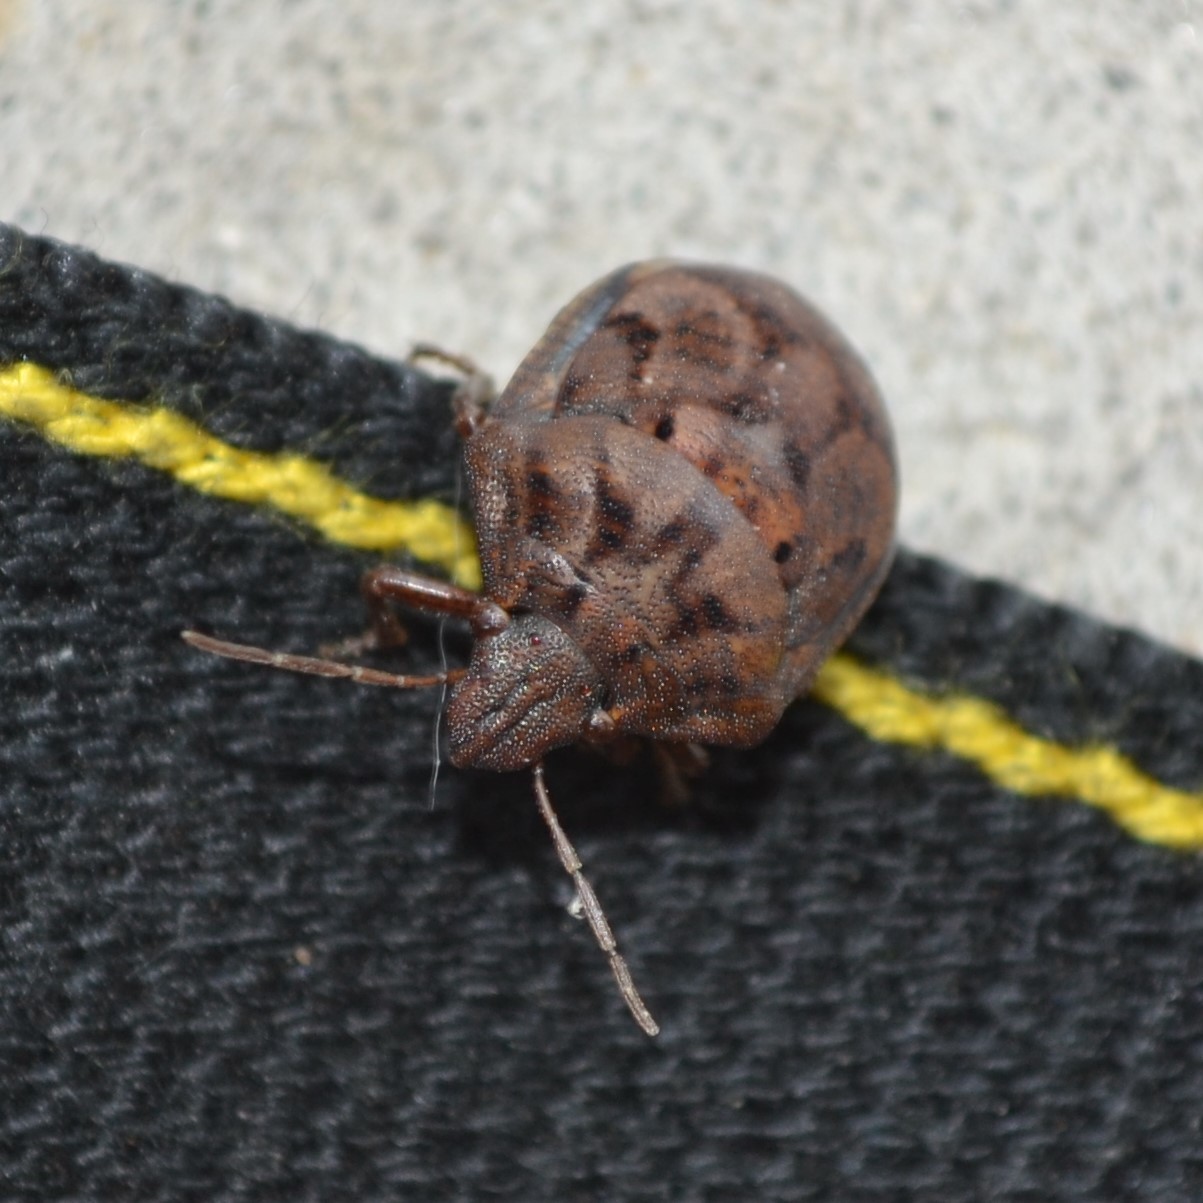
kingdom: Animalia
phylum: Arthropoda
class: Insecta
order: Hemiptera
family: Scutelleridae
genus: Tetyra
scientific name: Tetyra bipunctata
